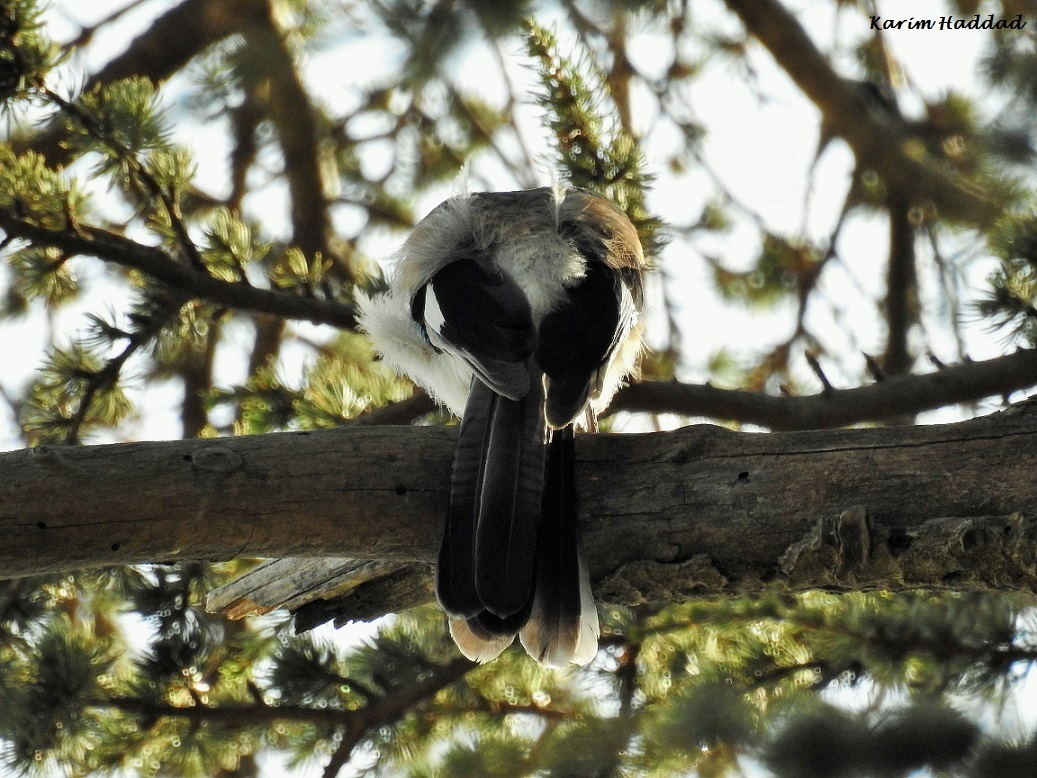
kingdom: Animalia
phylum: Chordata
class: Aves
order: Passeriformes
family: Corvidae
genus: Garrulus
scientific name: Garrulus glandarius
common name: Eurasian jay
